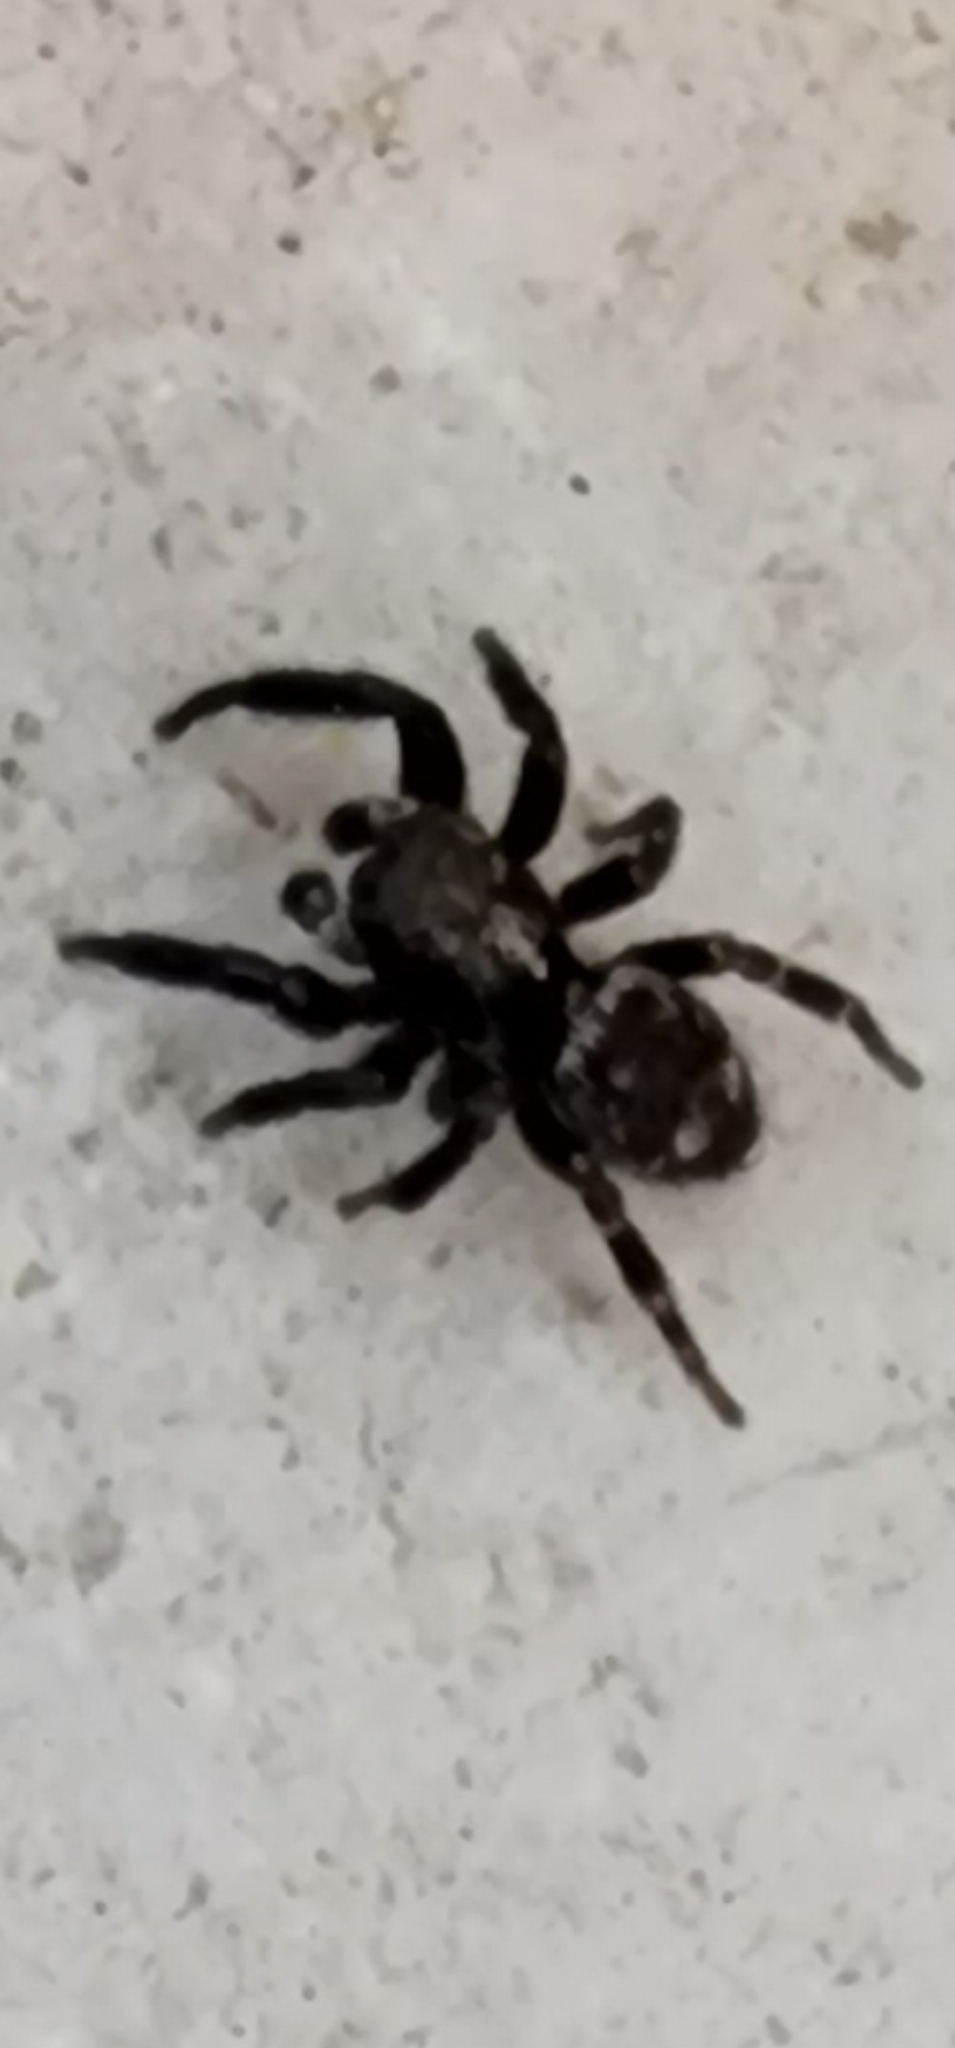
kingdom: Animalia
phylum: Arthropoda
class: Arachnida
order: Araneae
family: Salticidae
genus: Pseudeuophrys
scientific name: Pseudeuophrys erratica
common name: Jumping spider
